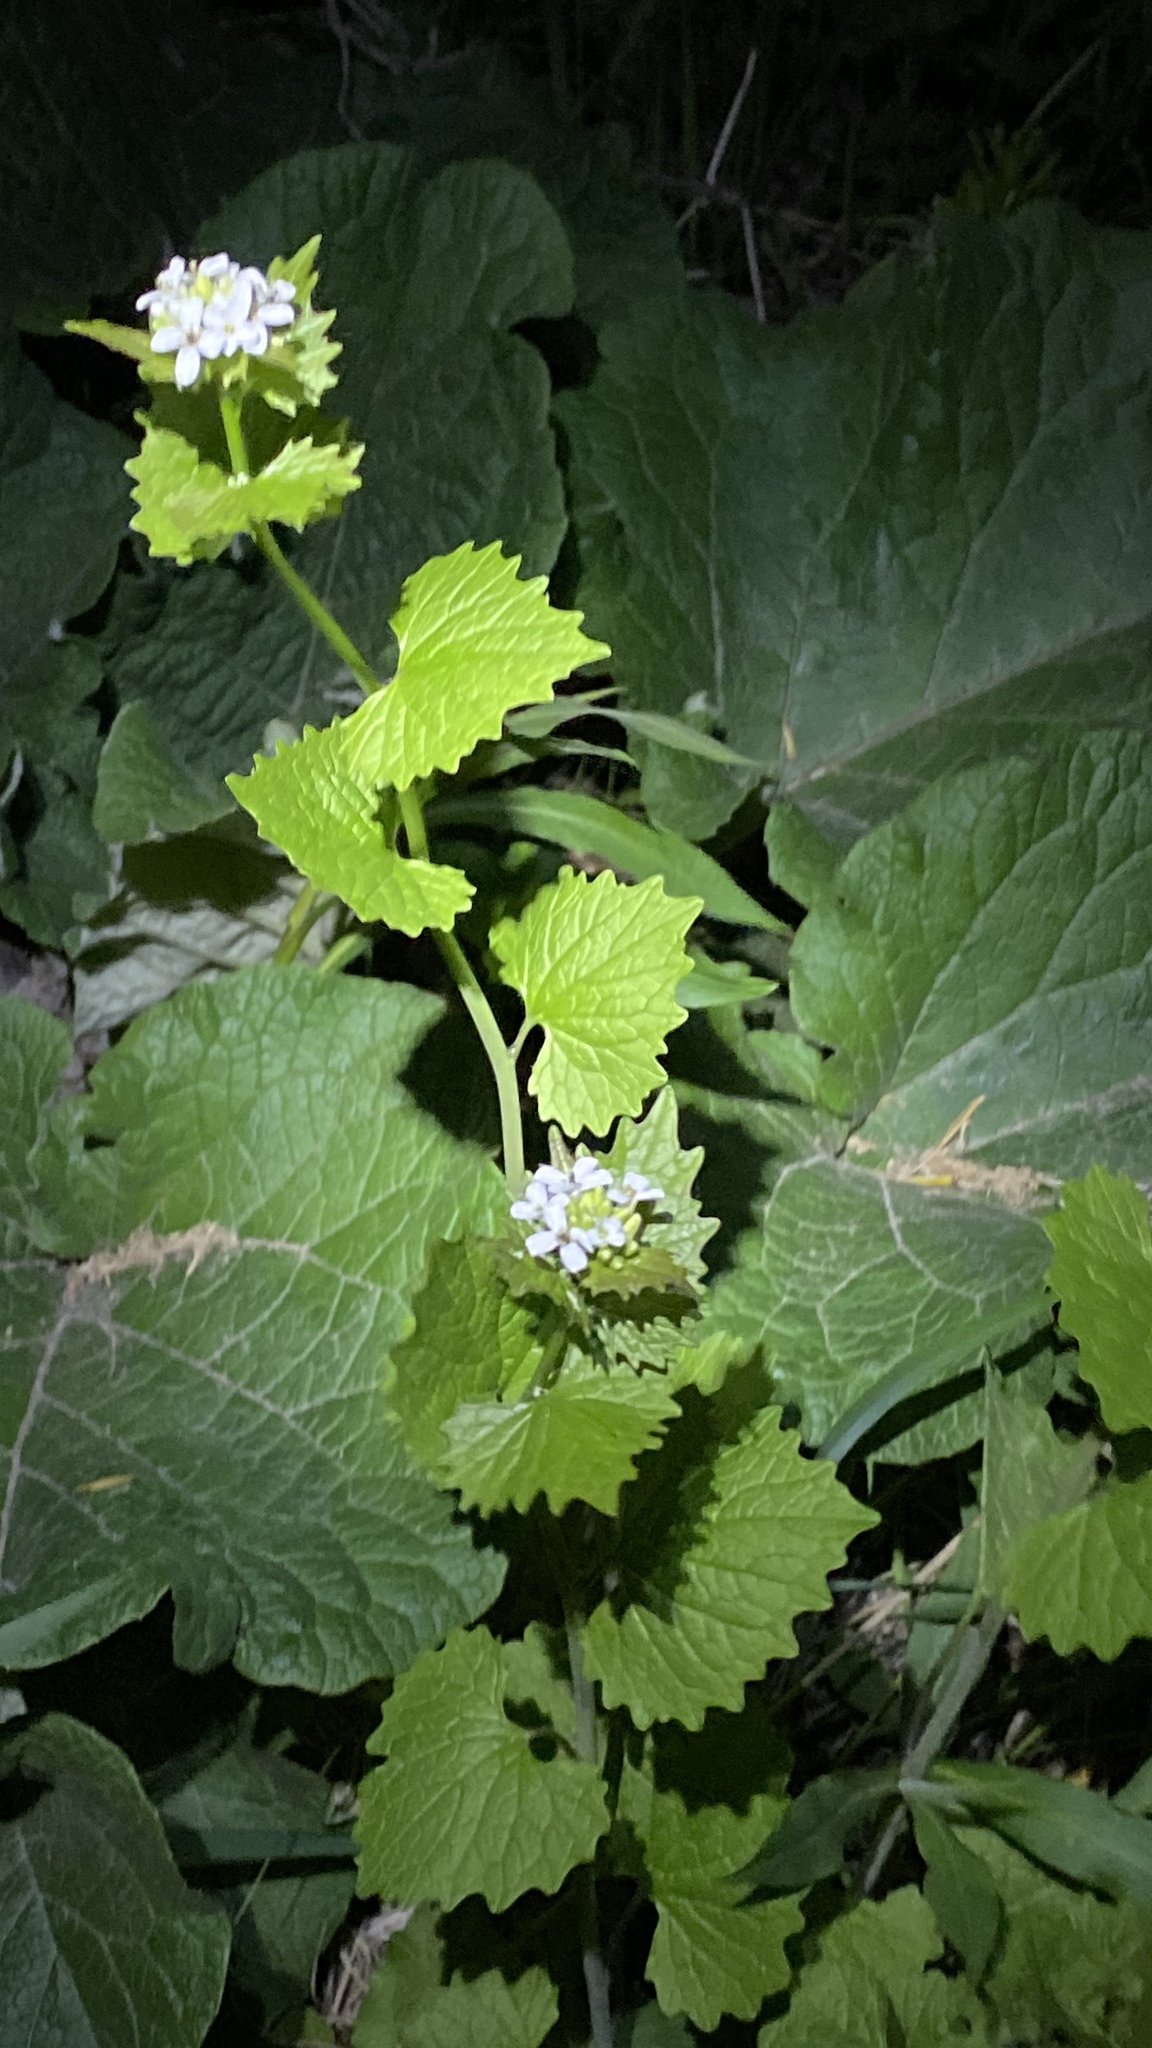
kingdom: Plantae
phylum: Tracheophyta
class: Magnoliopsida
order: Brassicales
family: Brassicaceae
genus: Alliaria
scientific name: Alliaria petiolata
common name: Garlic mustard
